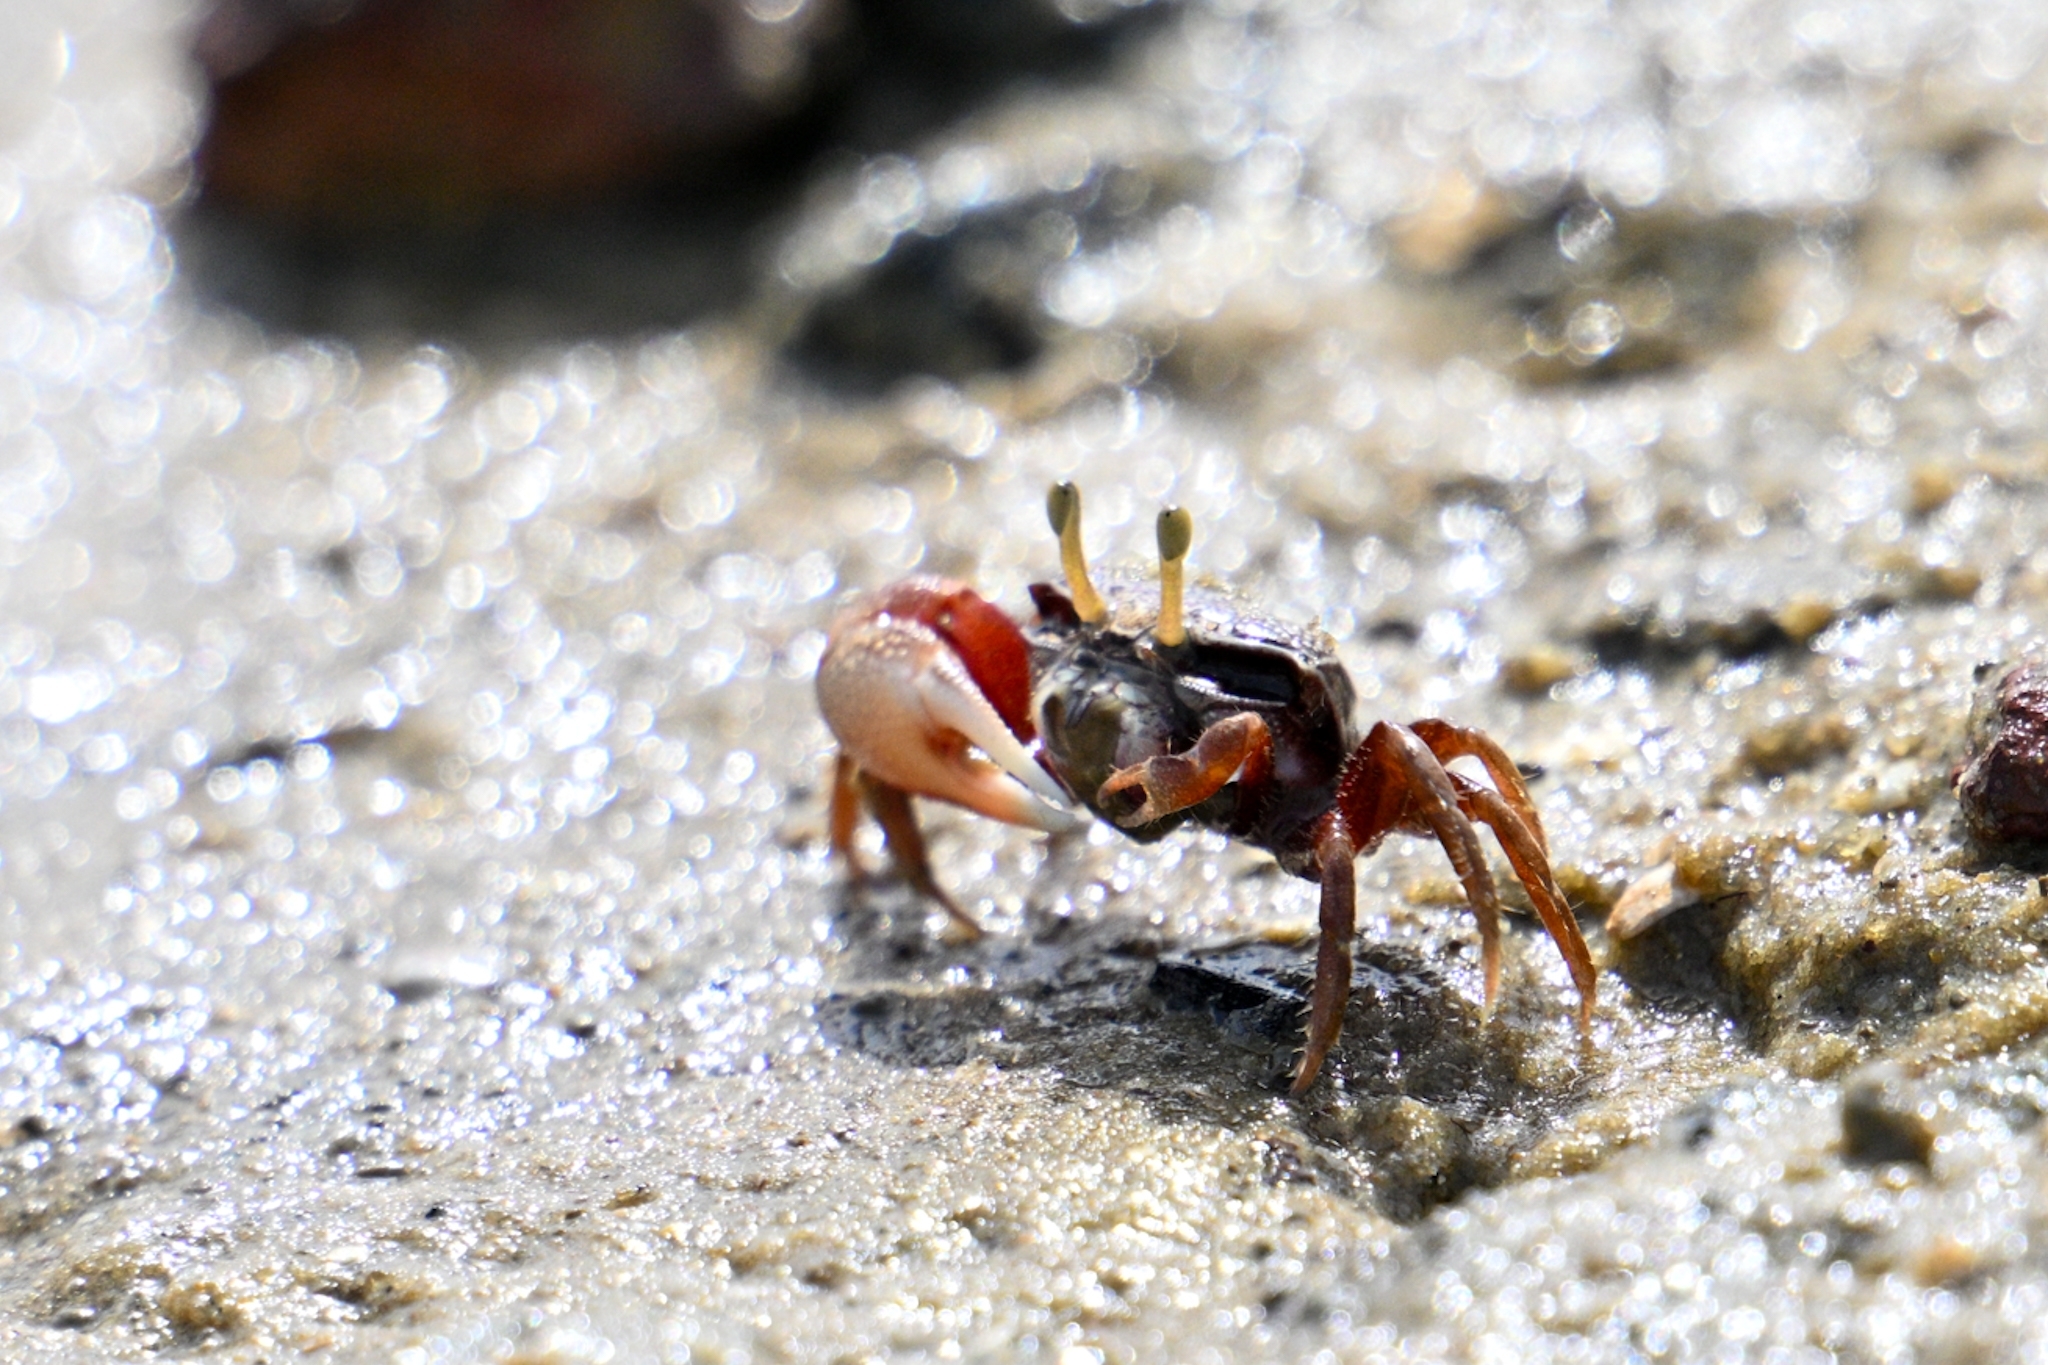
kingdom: Animalia
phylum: Arthropoda
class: Malacostraca
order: Decapoda
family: Ocypodidae
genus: Afruca
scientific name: Afruca tangeri
